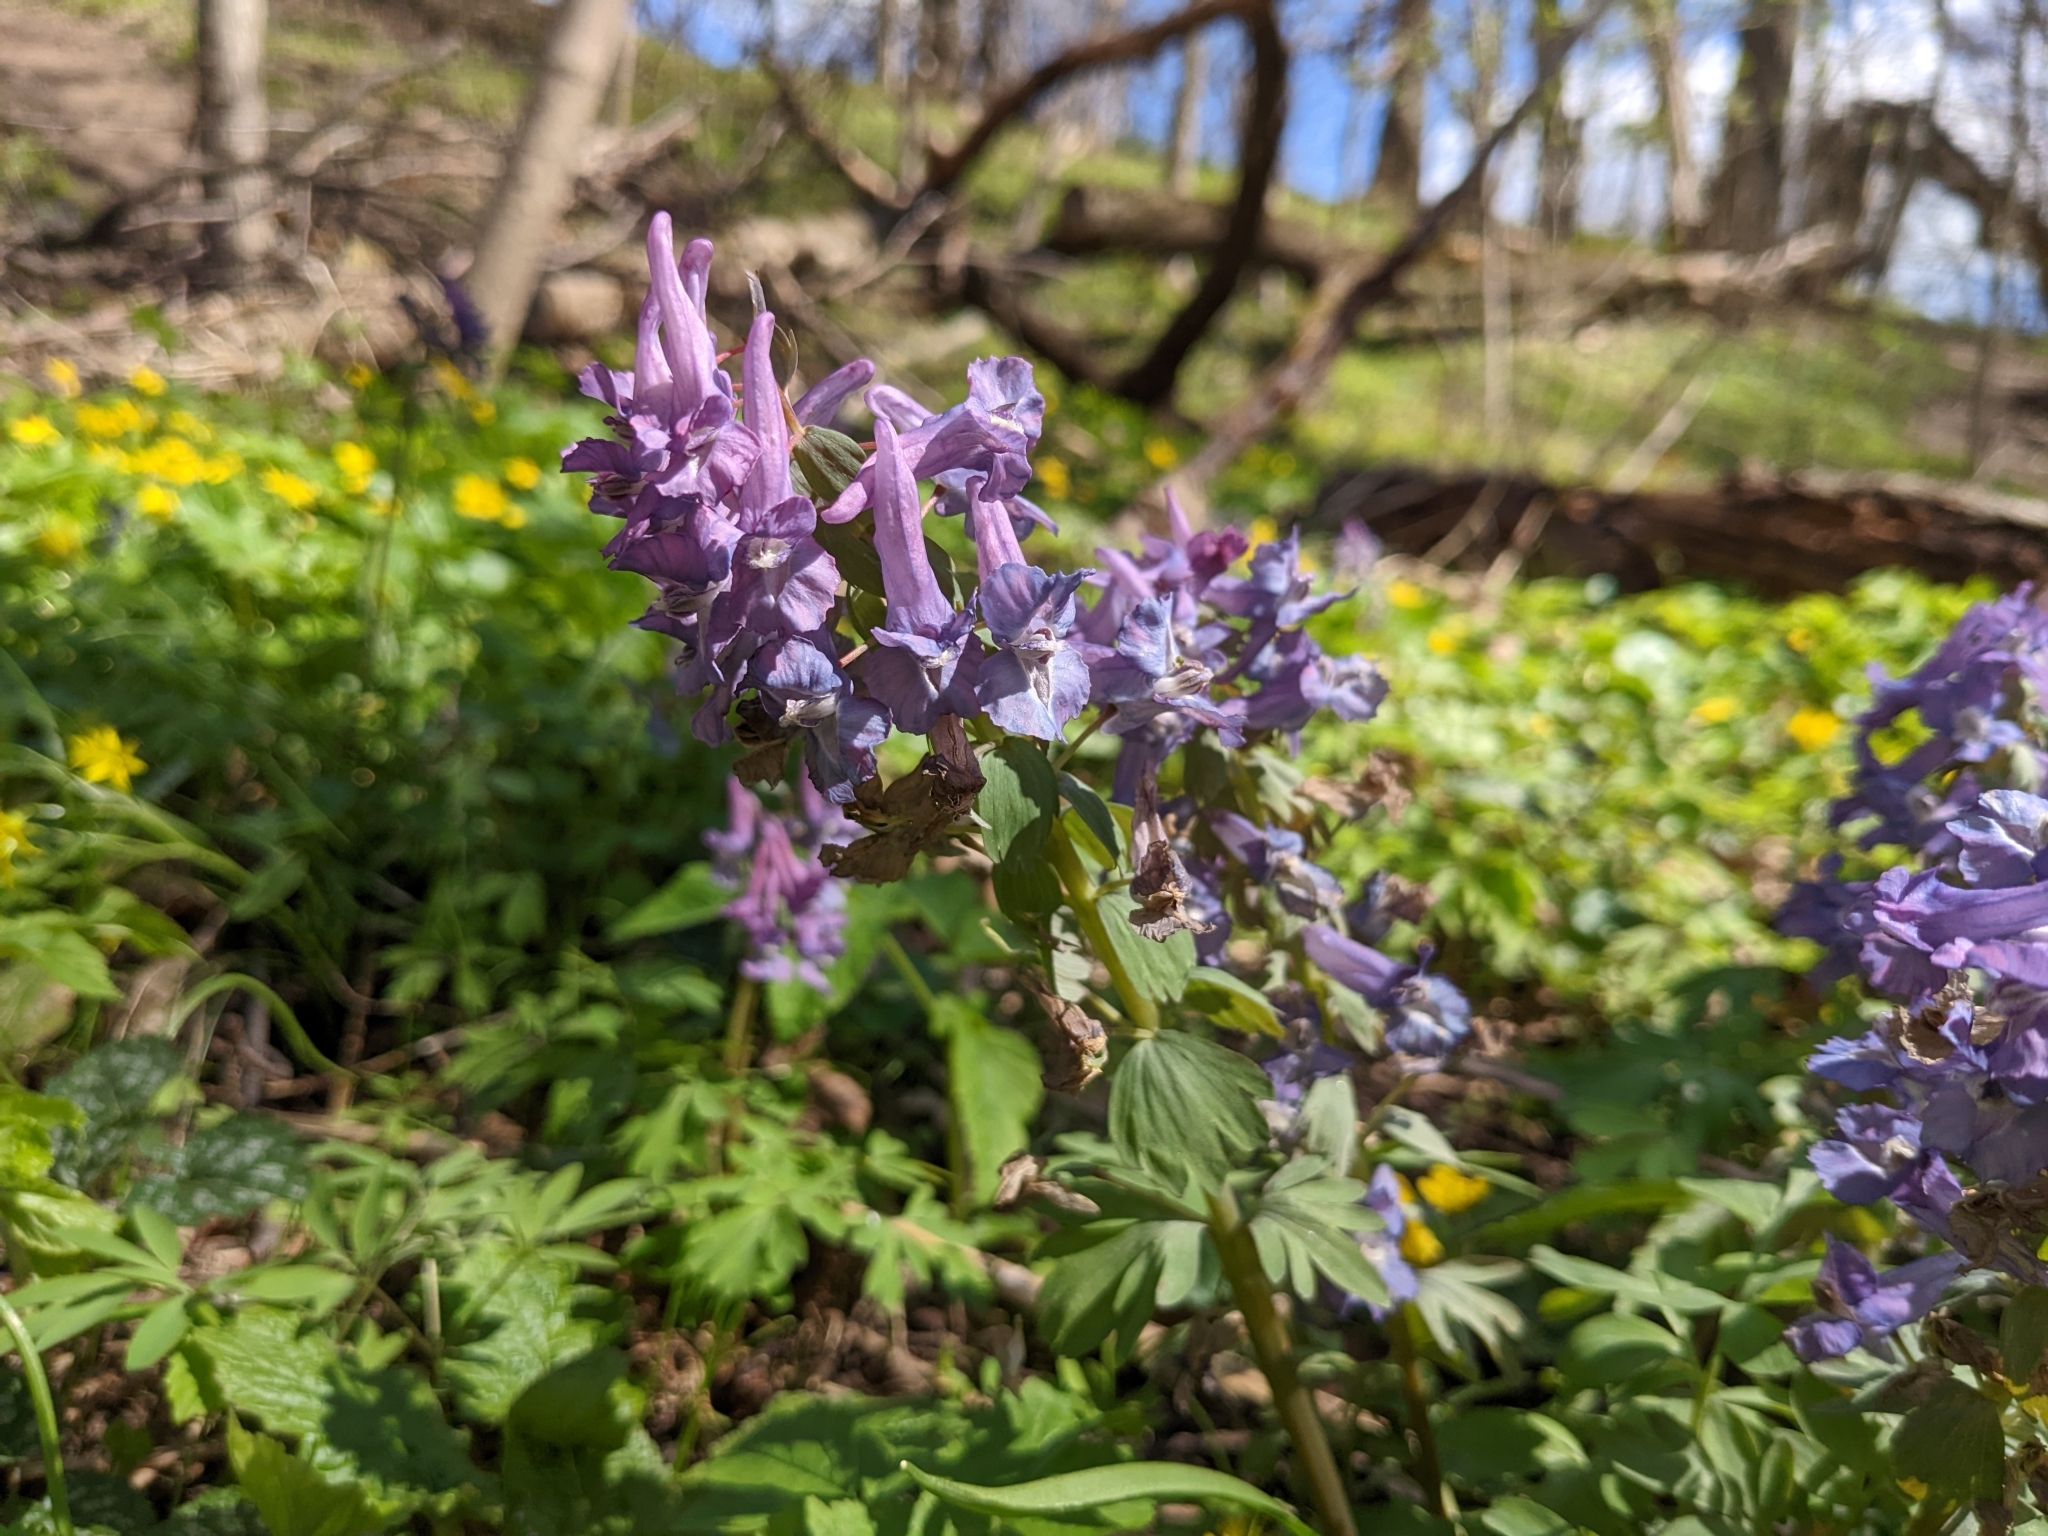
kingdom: Plantae
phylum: Tracheophyta
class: Magnoliopsida
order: Ranunculales
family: Papaveraceae
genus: Corydalis
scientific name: Corydalis solida
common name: Bird-in-a-bush
